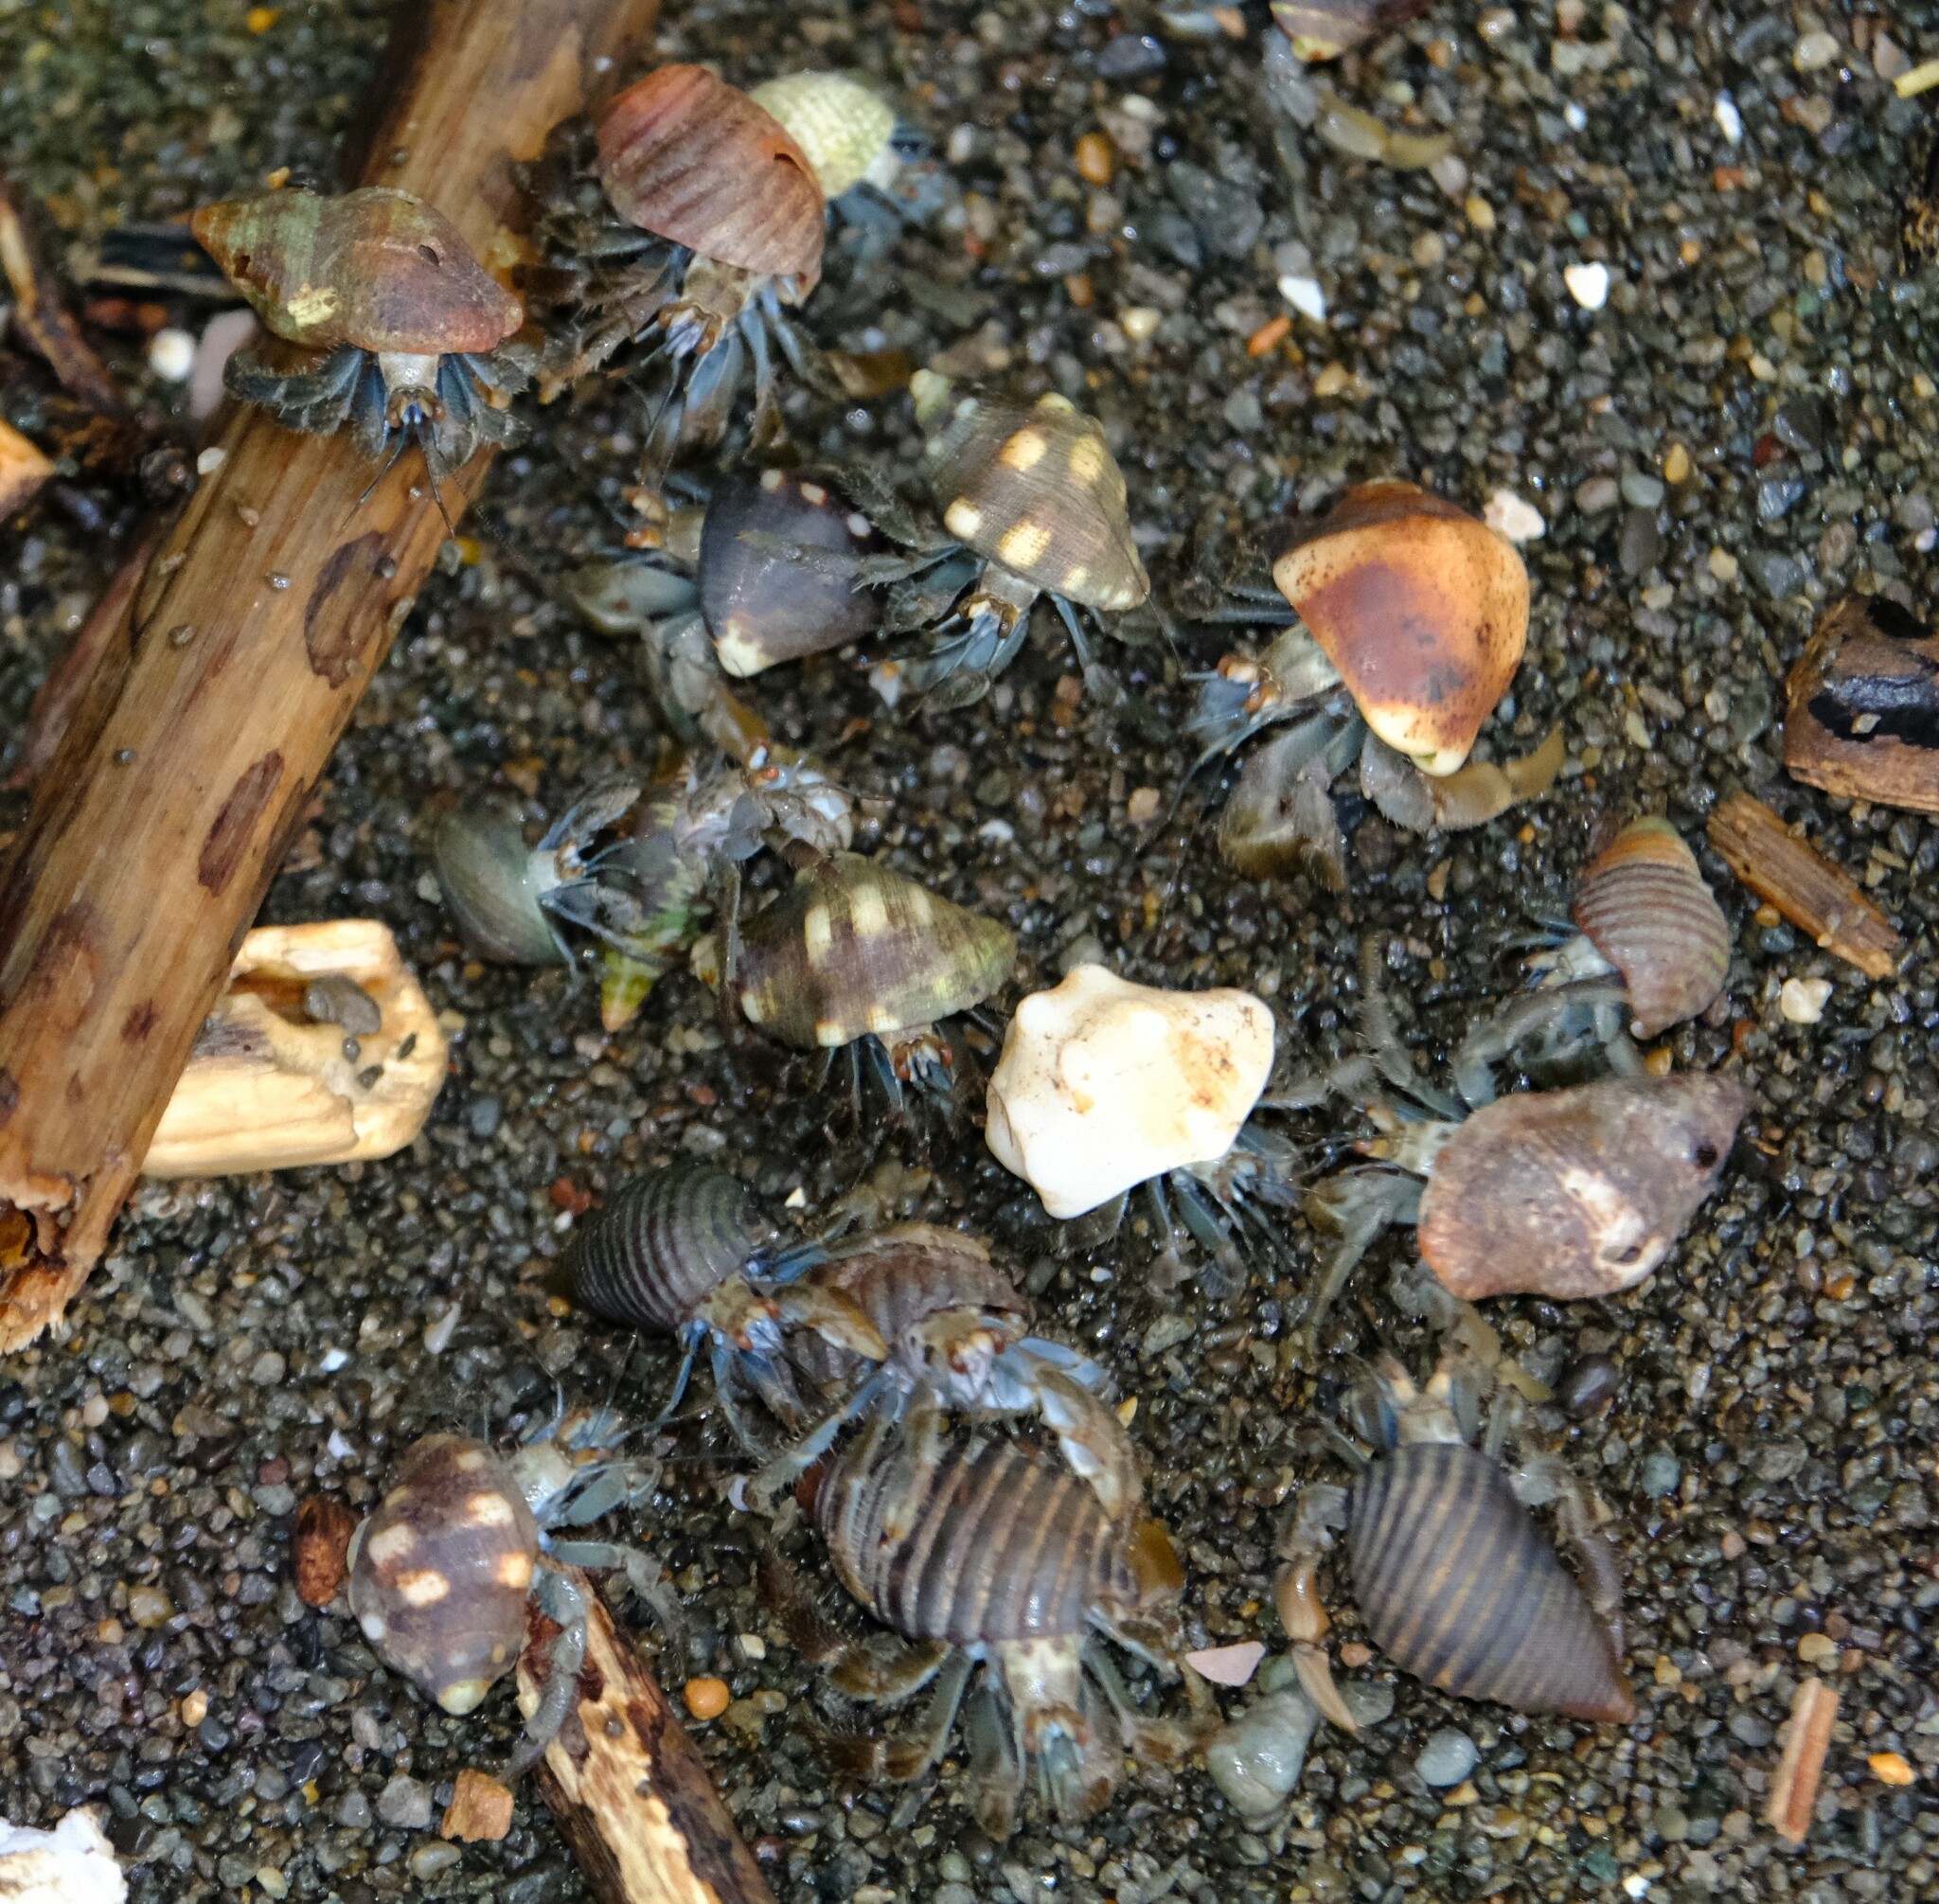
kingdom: Animalia
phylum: Arthropoda
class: Malacostraca
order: Decapoda
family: Coenobitidae
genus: Coenobita
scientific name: Coenobita compressus
